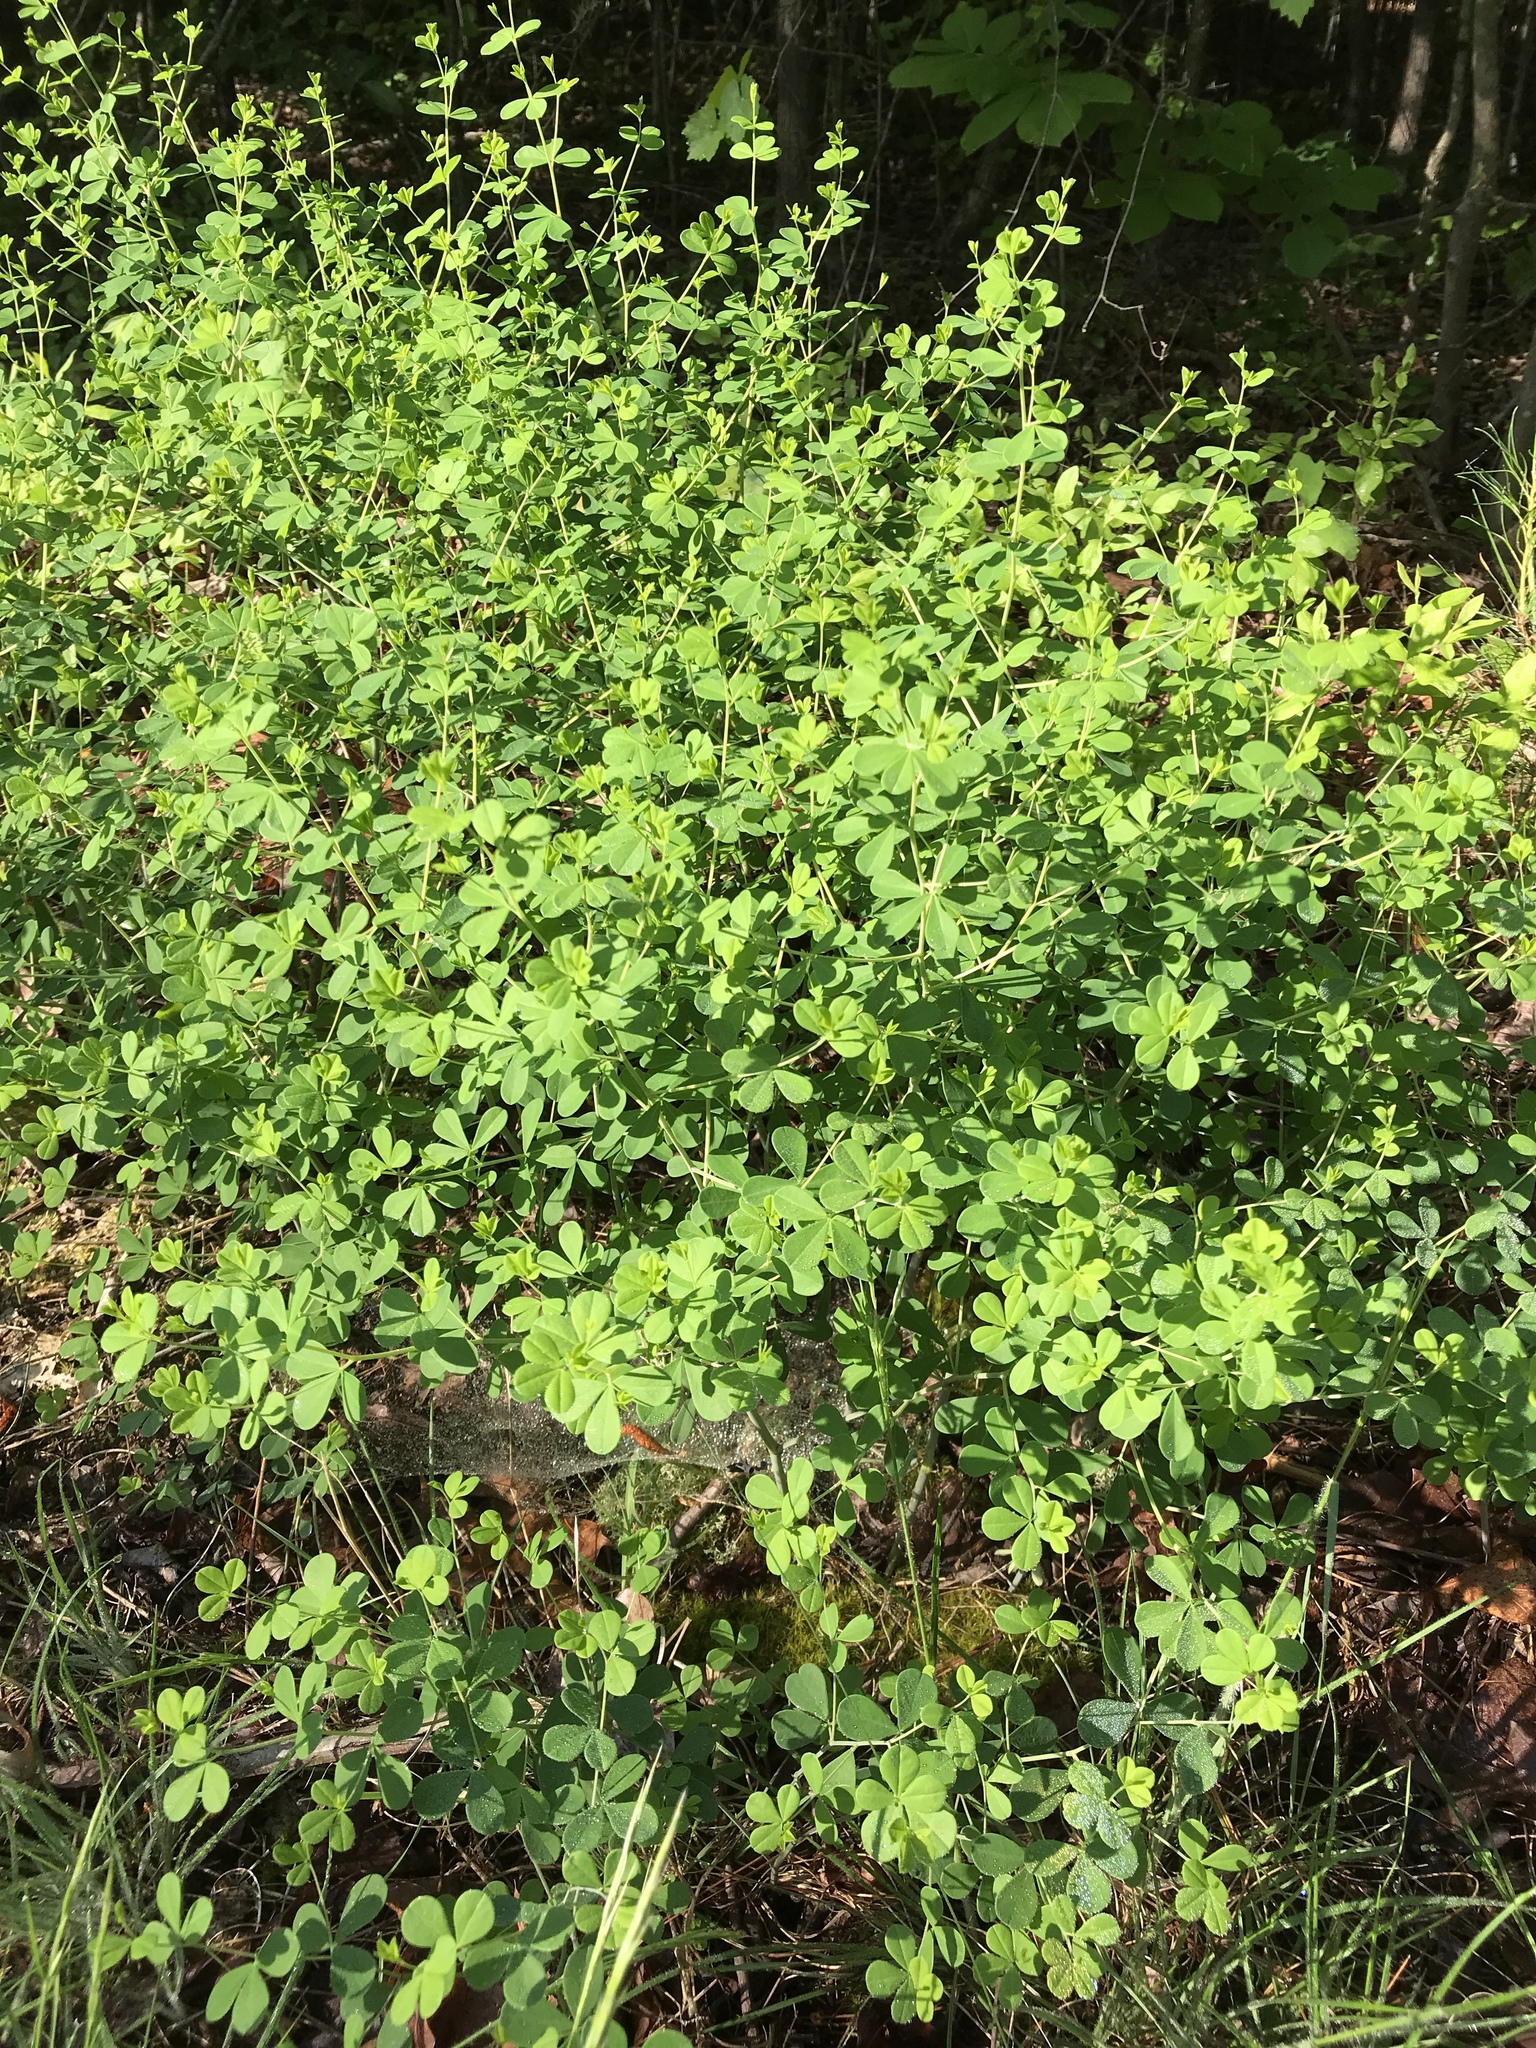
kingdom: Plantae
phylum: Tracheophyta
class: Magnoliopsida
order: Fabales
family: Fabaceae
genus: Baptisia
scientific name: Baptisia tinctoria
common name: Wild indigo
